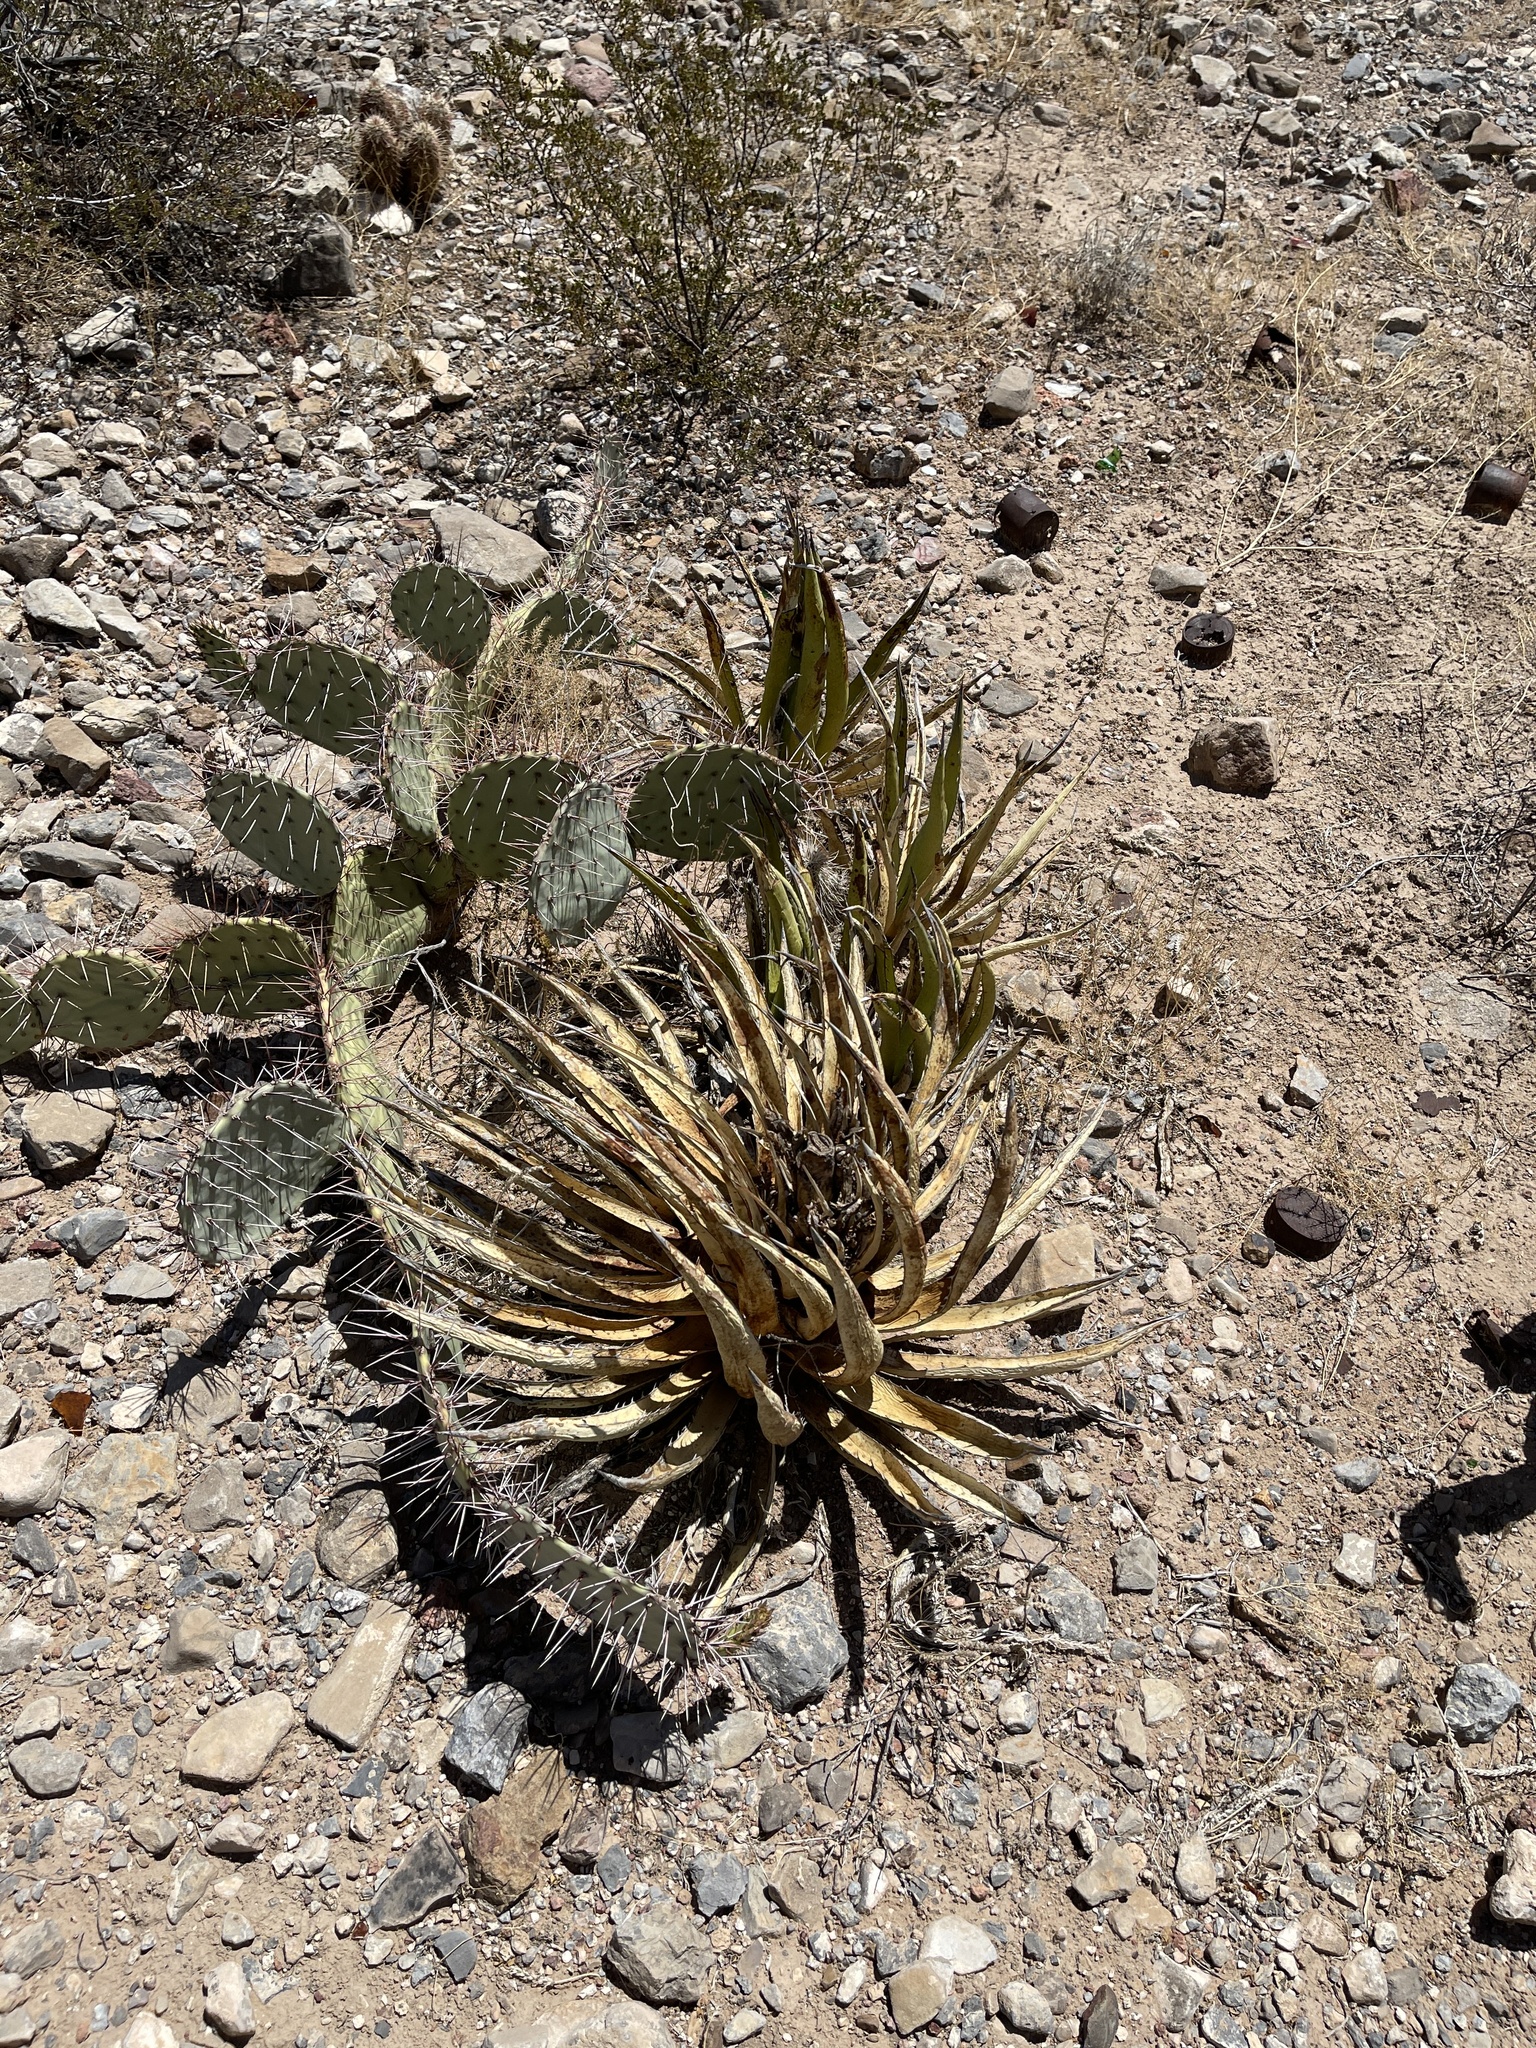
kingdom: Plantae
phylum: Tracheophyta
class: Liliopsida
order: Asparagales
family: Asparagaceae
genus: Agave
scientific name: Agave lechuguilla
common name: Lecheguilla agave
